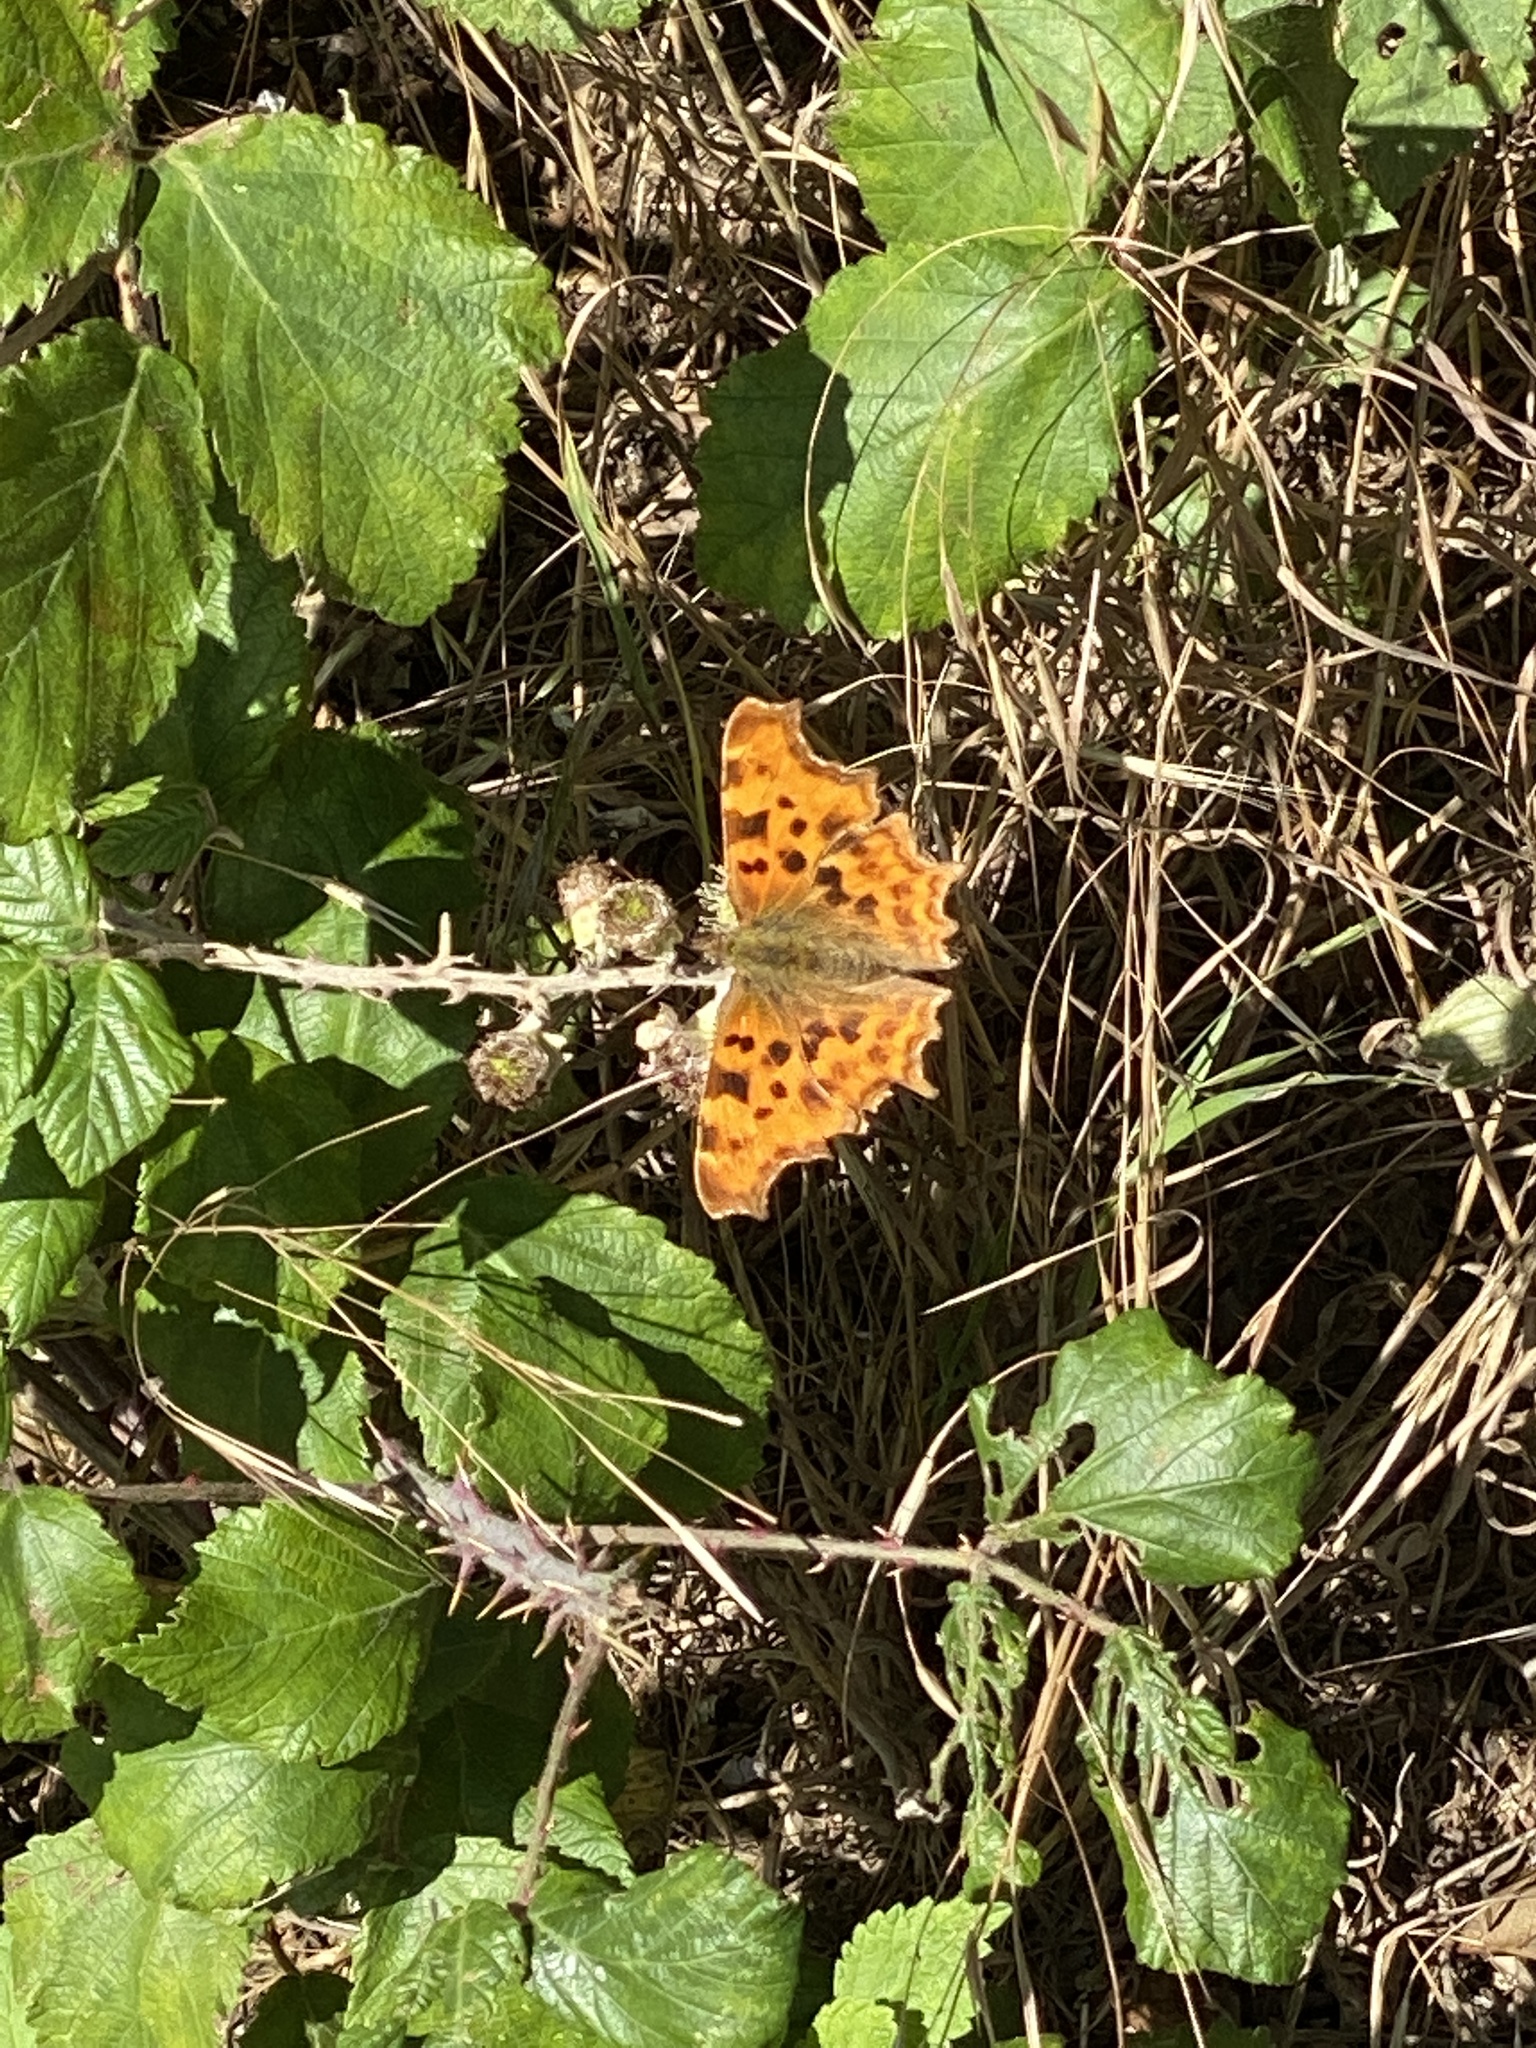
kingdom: Animalia
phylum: Arthropoda
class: Insecta
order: Lepidoptera
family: Nymphalidae
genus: Polygonia
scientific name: Polygonia c-album
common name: Comma
